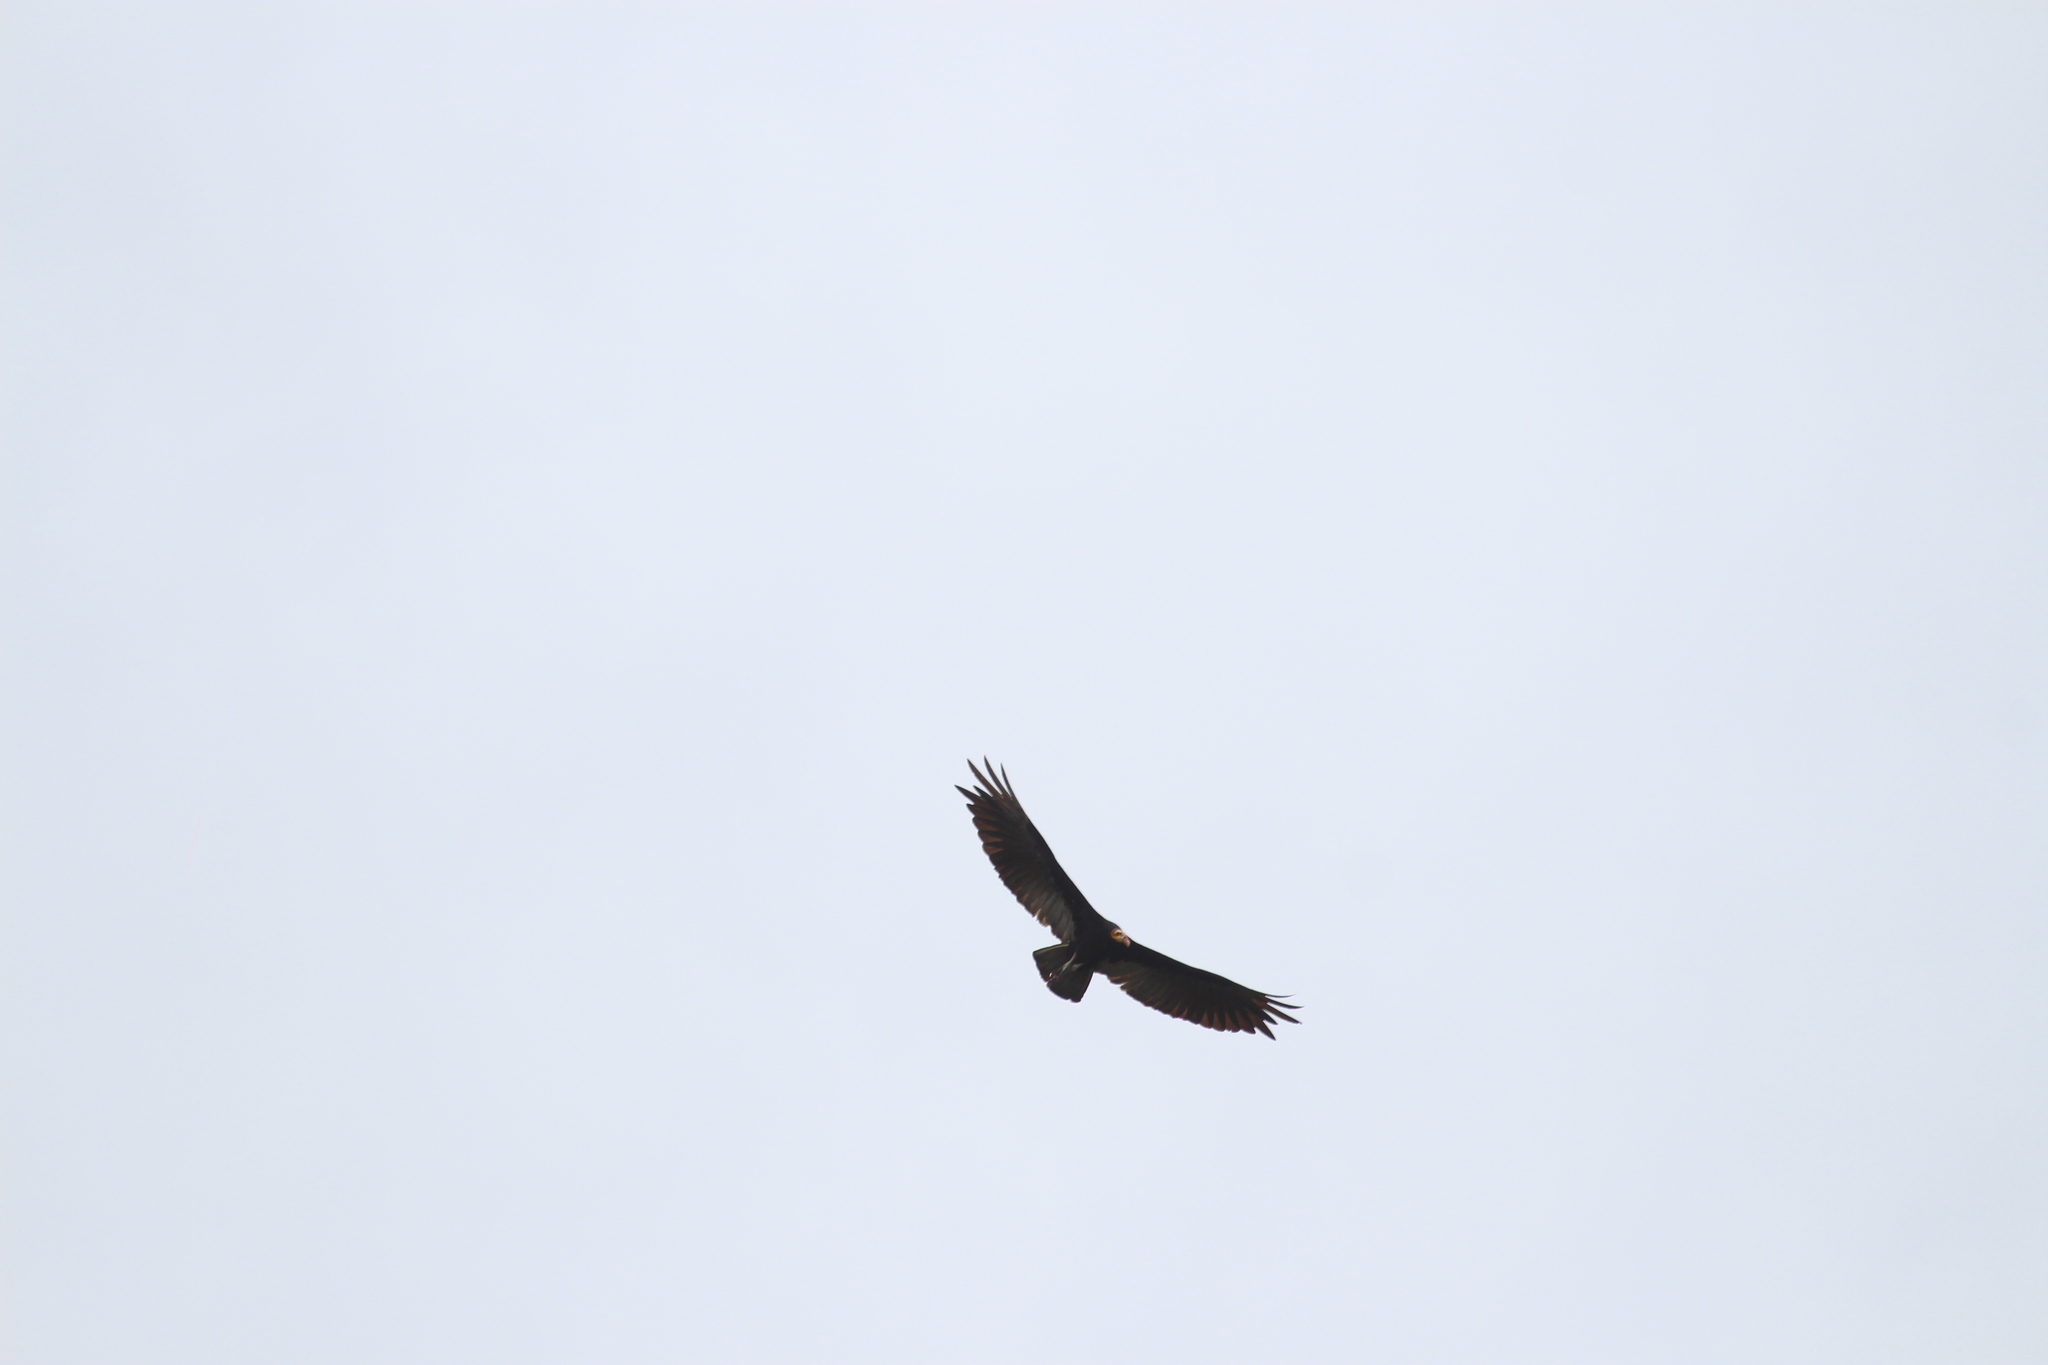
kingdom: Animalia
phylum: Chordata
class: Aves
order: Accipitriformes
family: Cathartidae
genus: Cathartes
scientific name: Cathartes melambrotus
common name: Greater yellow-headed vulture
